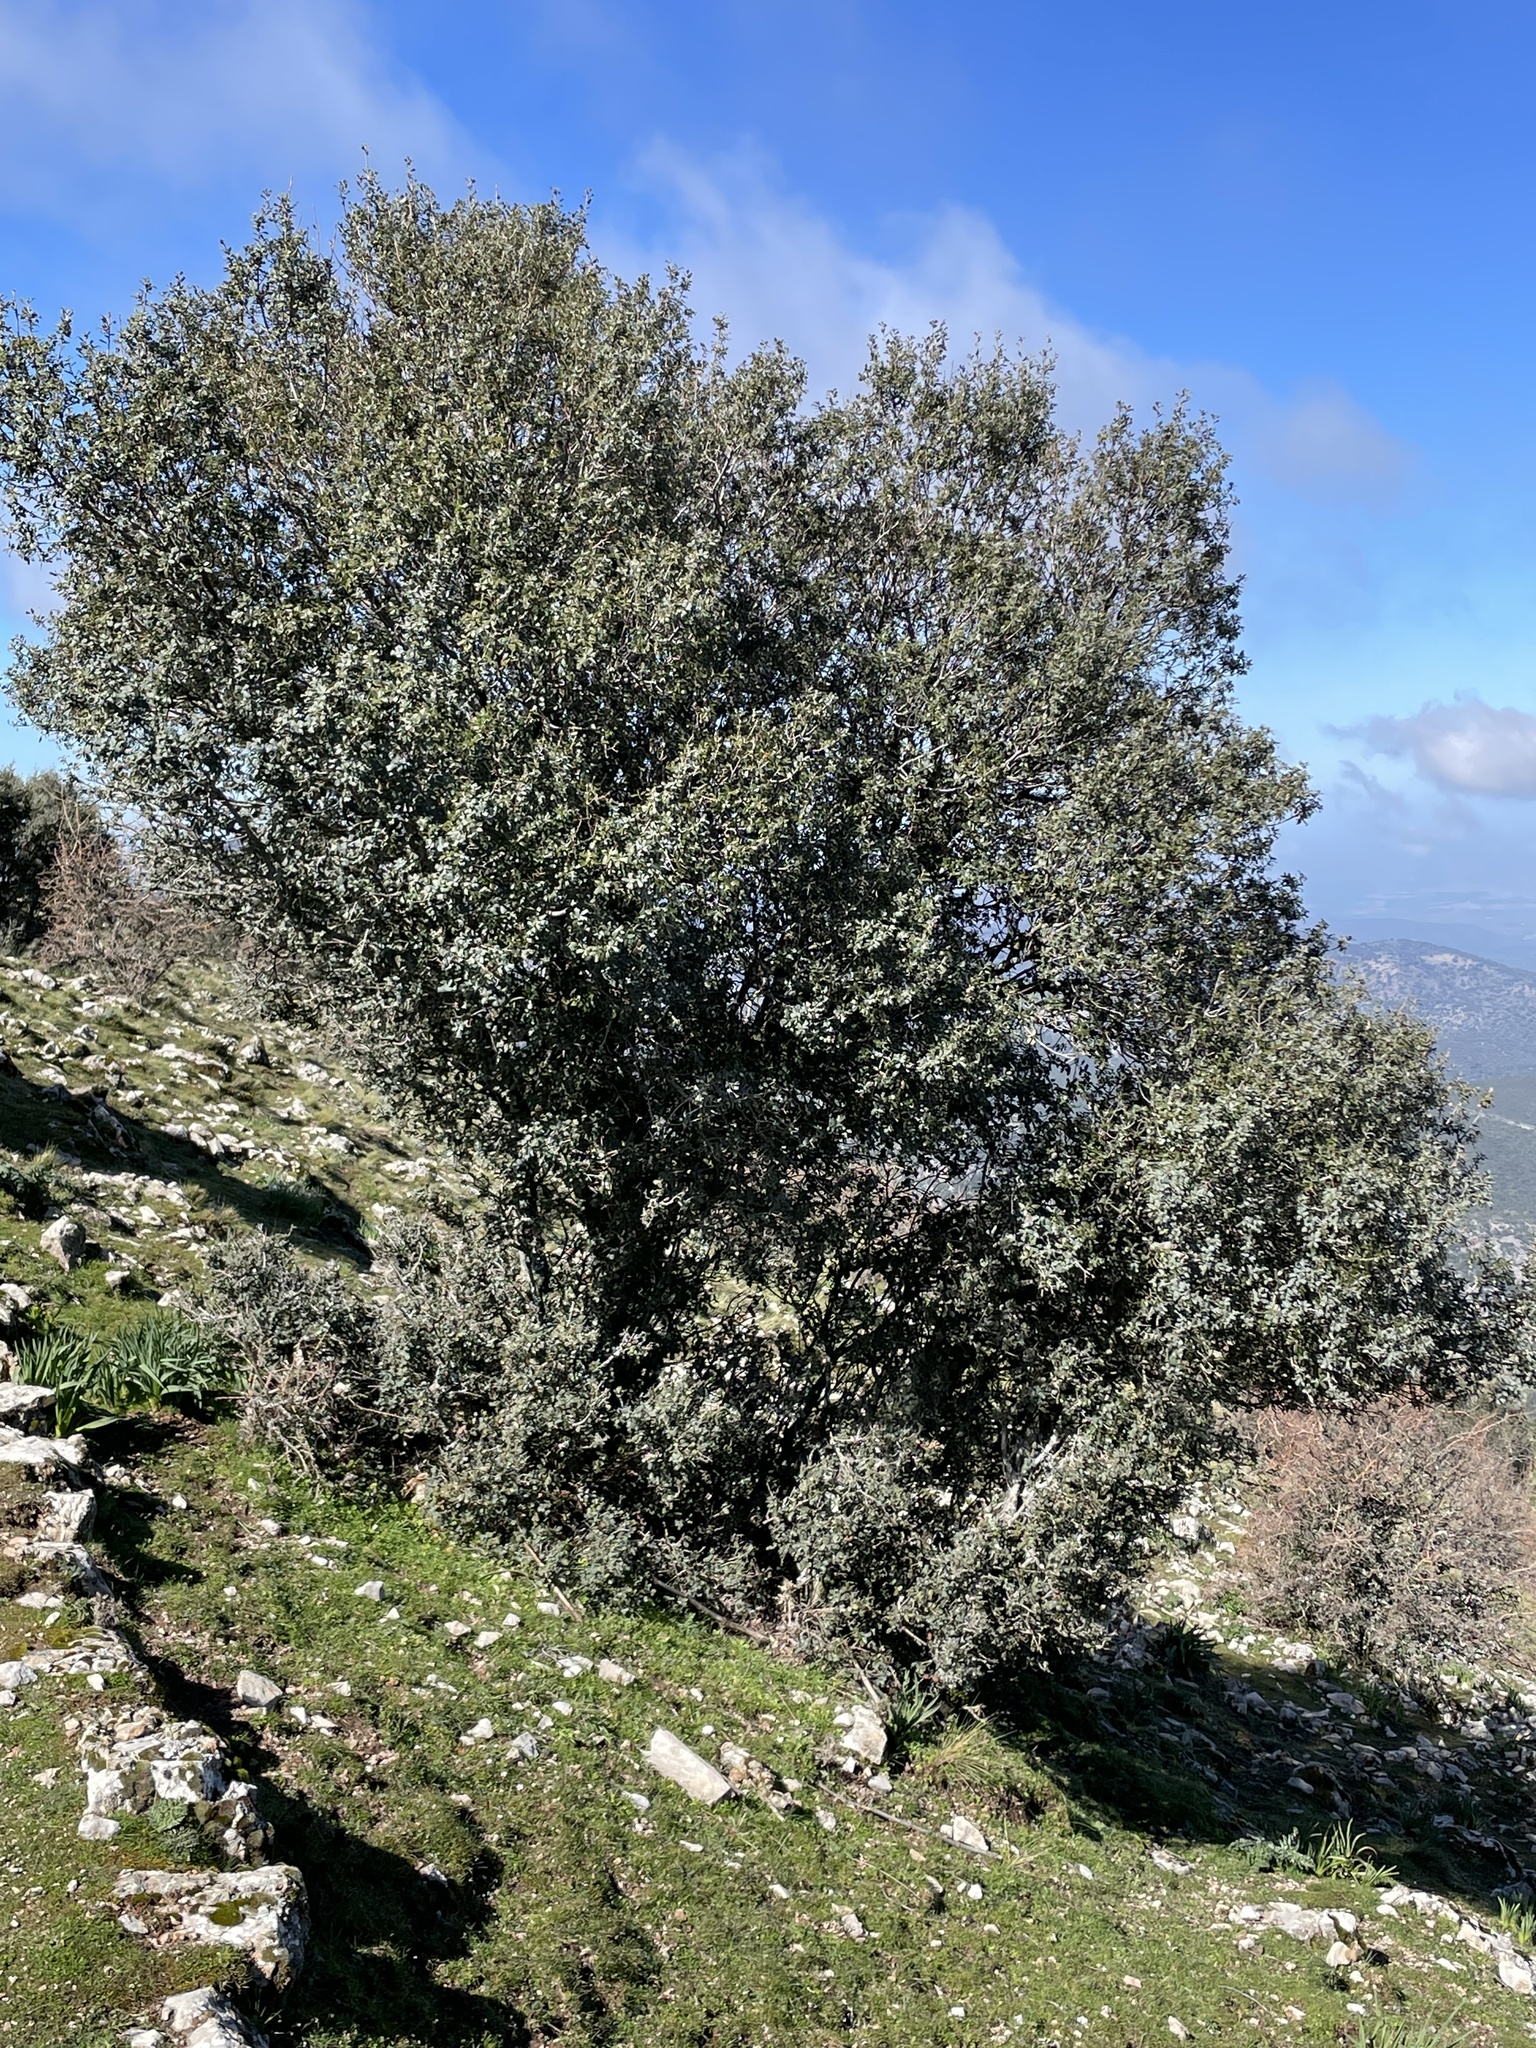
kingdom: Plantae
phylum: Tracheophyta
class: Magnoliopsida
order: Fagales
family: Fagaceae
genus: Quercus
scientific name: Quercus rotundifolia
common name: Holm oak
